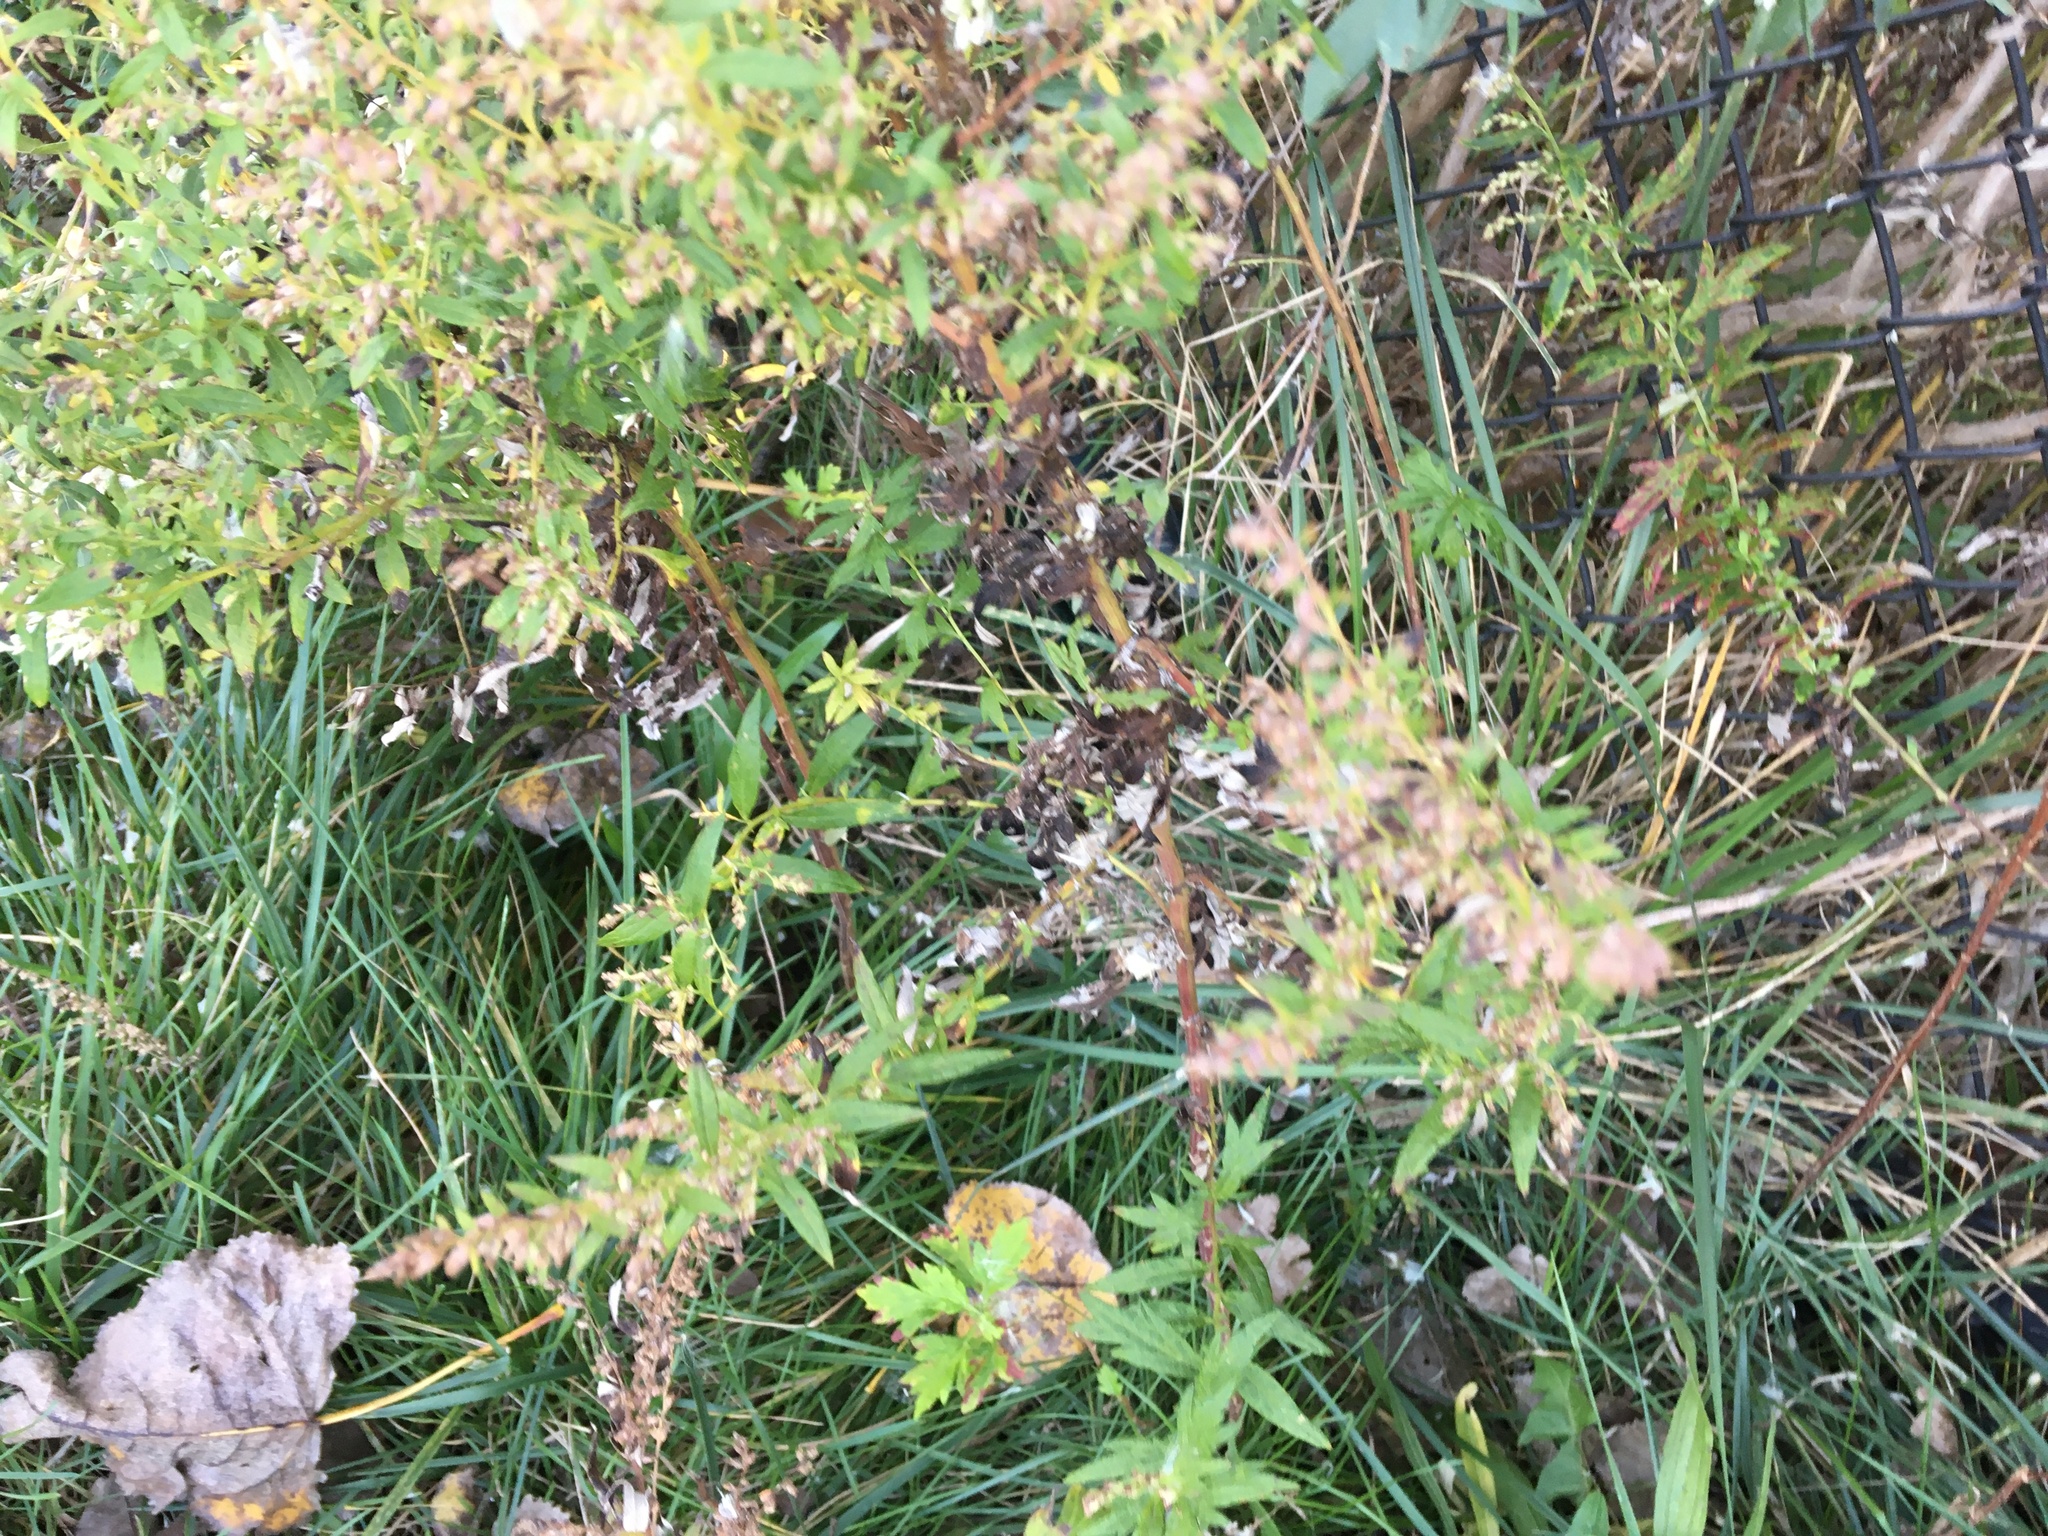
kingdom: Plantae
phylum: Tracheophyta
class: Magnoliopsida
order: Asterales
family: Asteraceae
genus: Artemisia
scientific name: Artemisia vulgaris
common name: Mugwort
